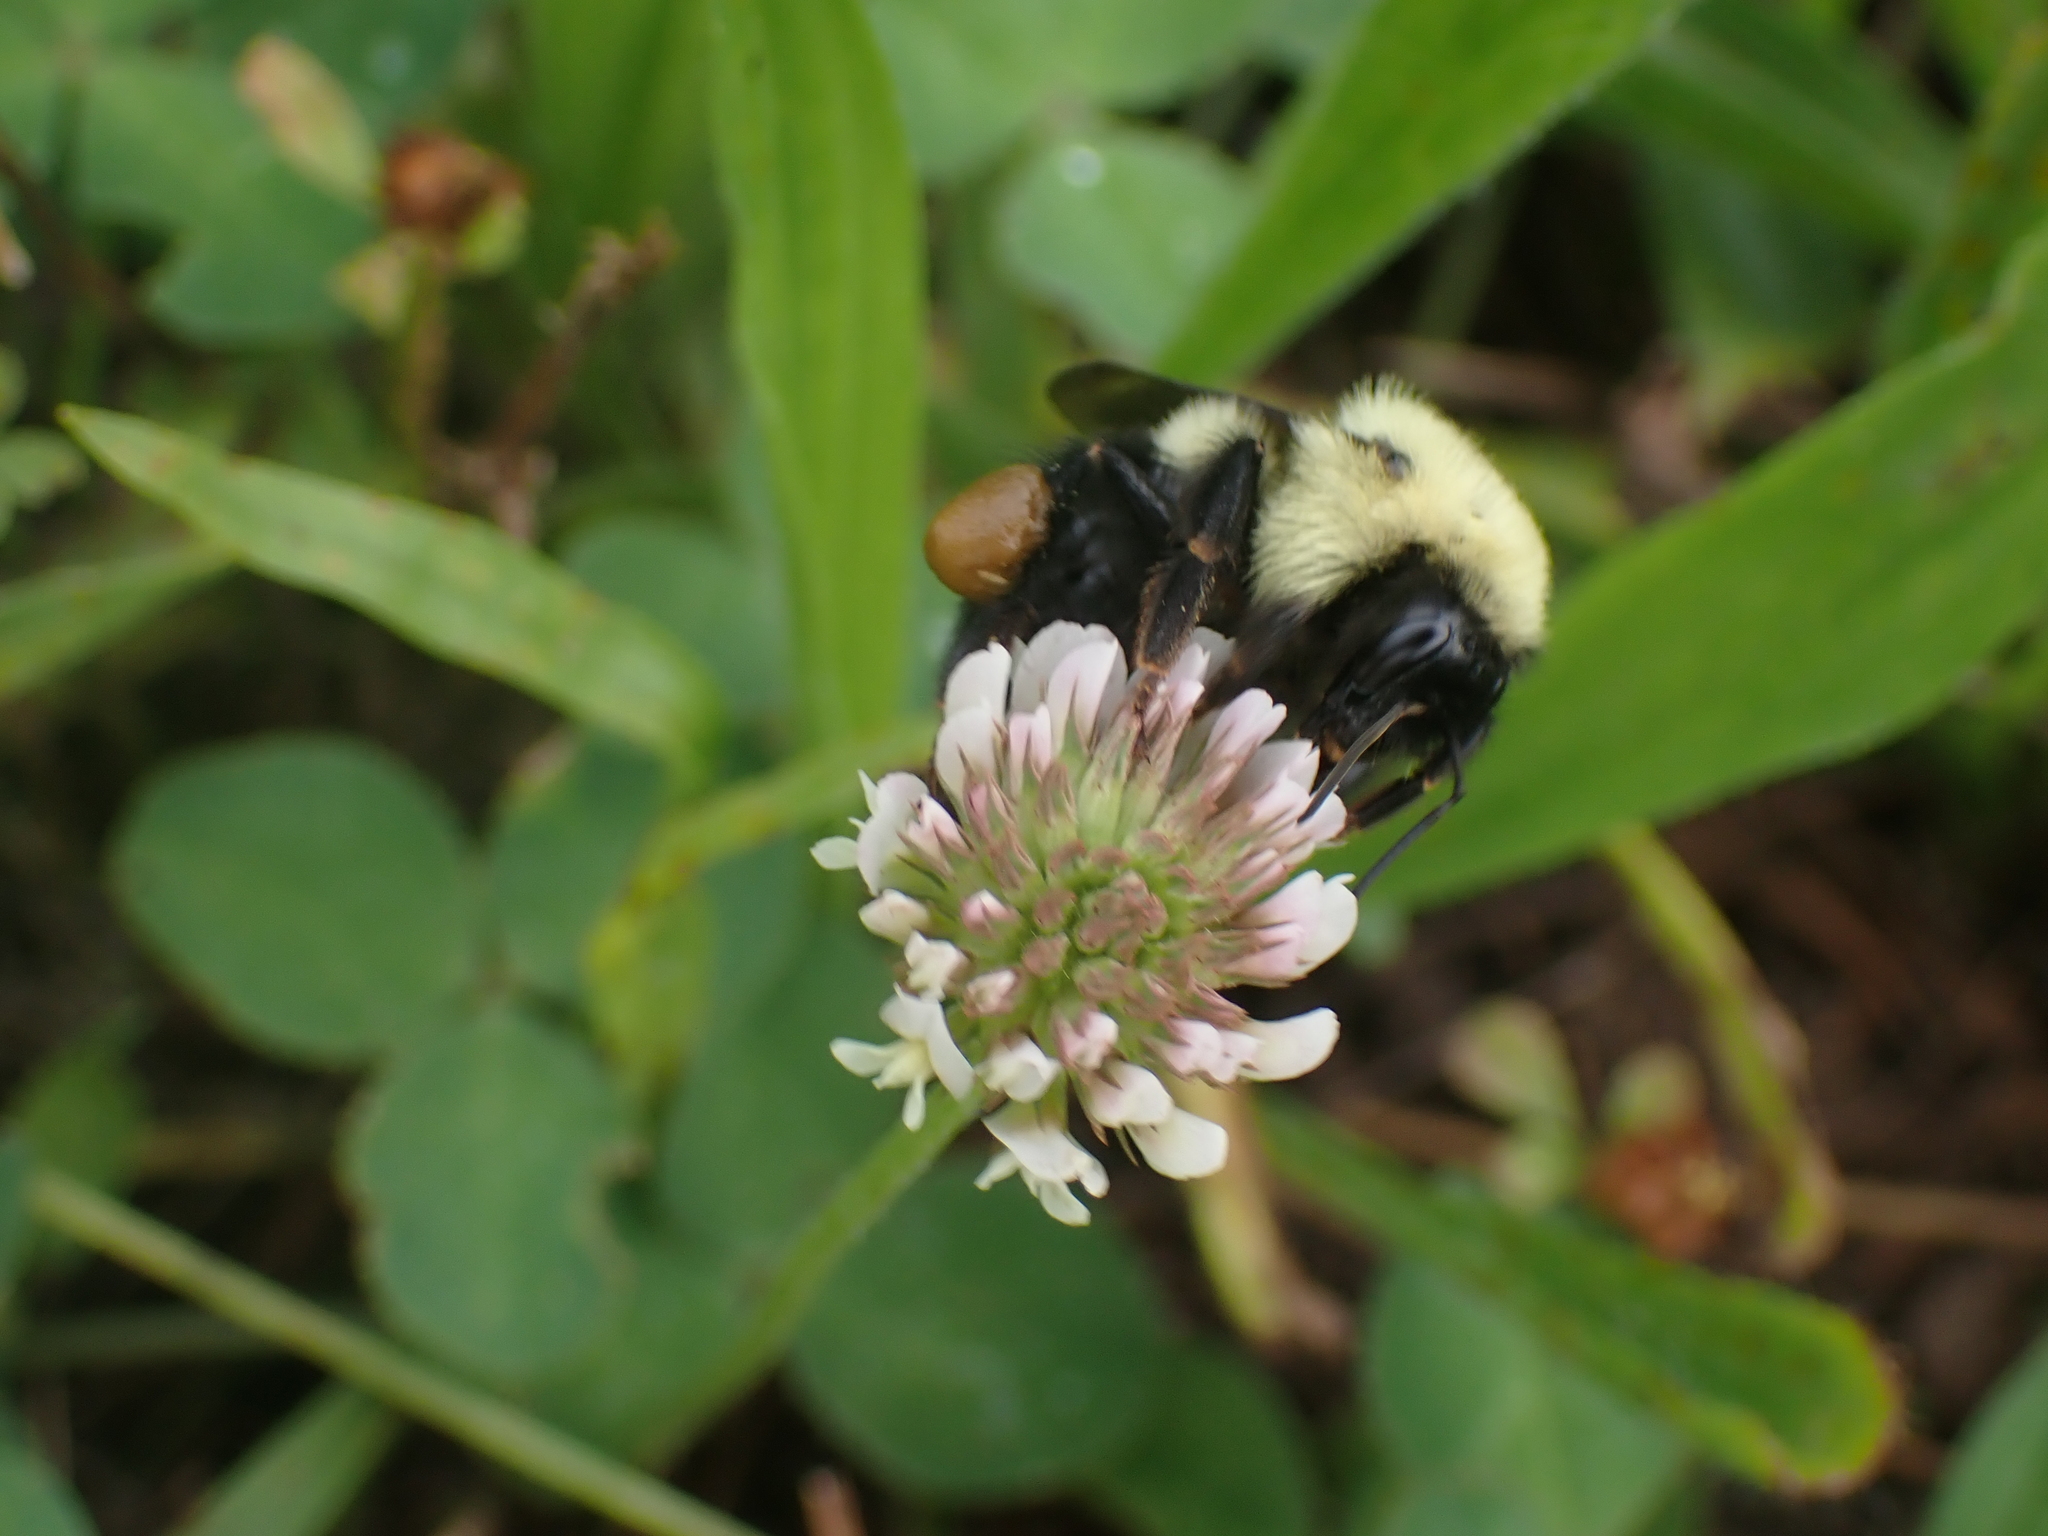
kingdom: Animalia
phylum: Arthropoda
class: Insecta
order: Hymenoptera
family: Apidae
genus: Bombus
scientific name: Bombus bimaculatus
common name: Two-spotted bumble bee
